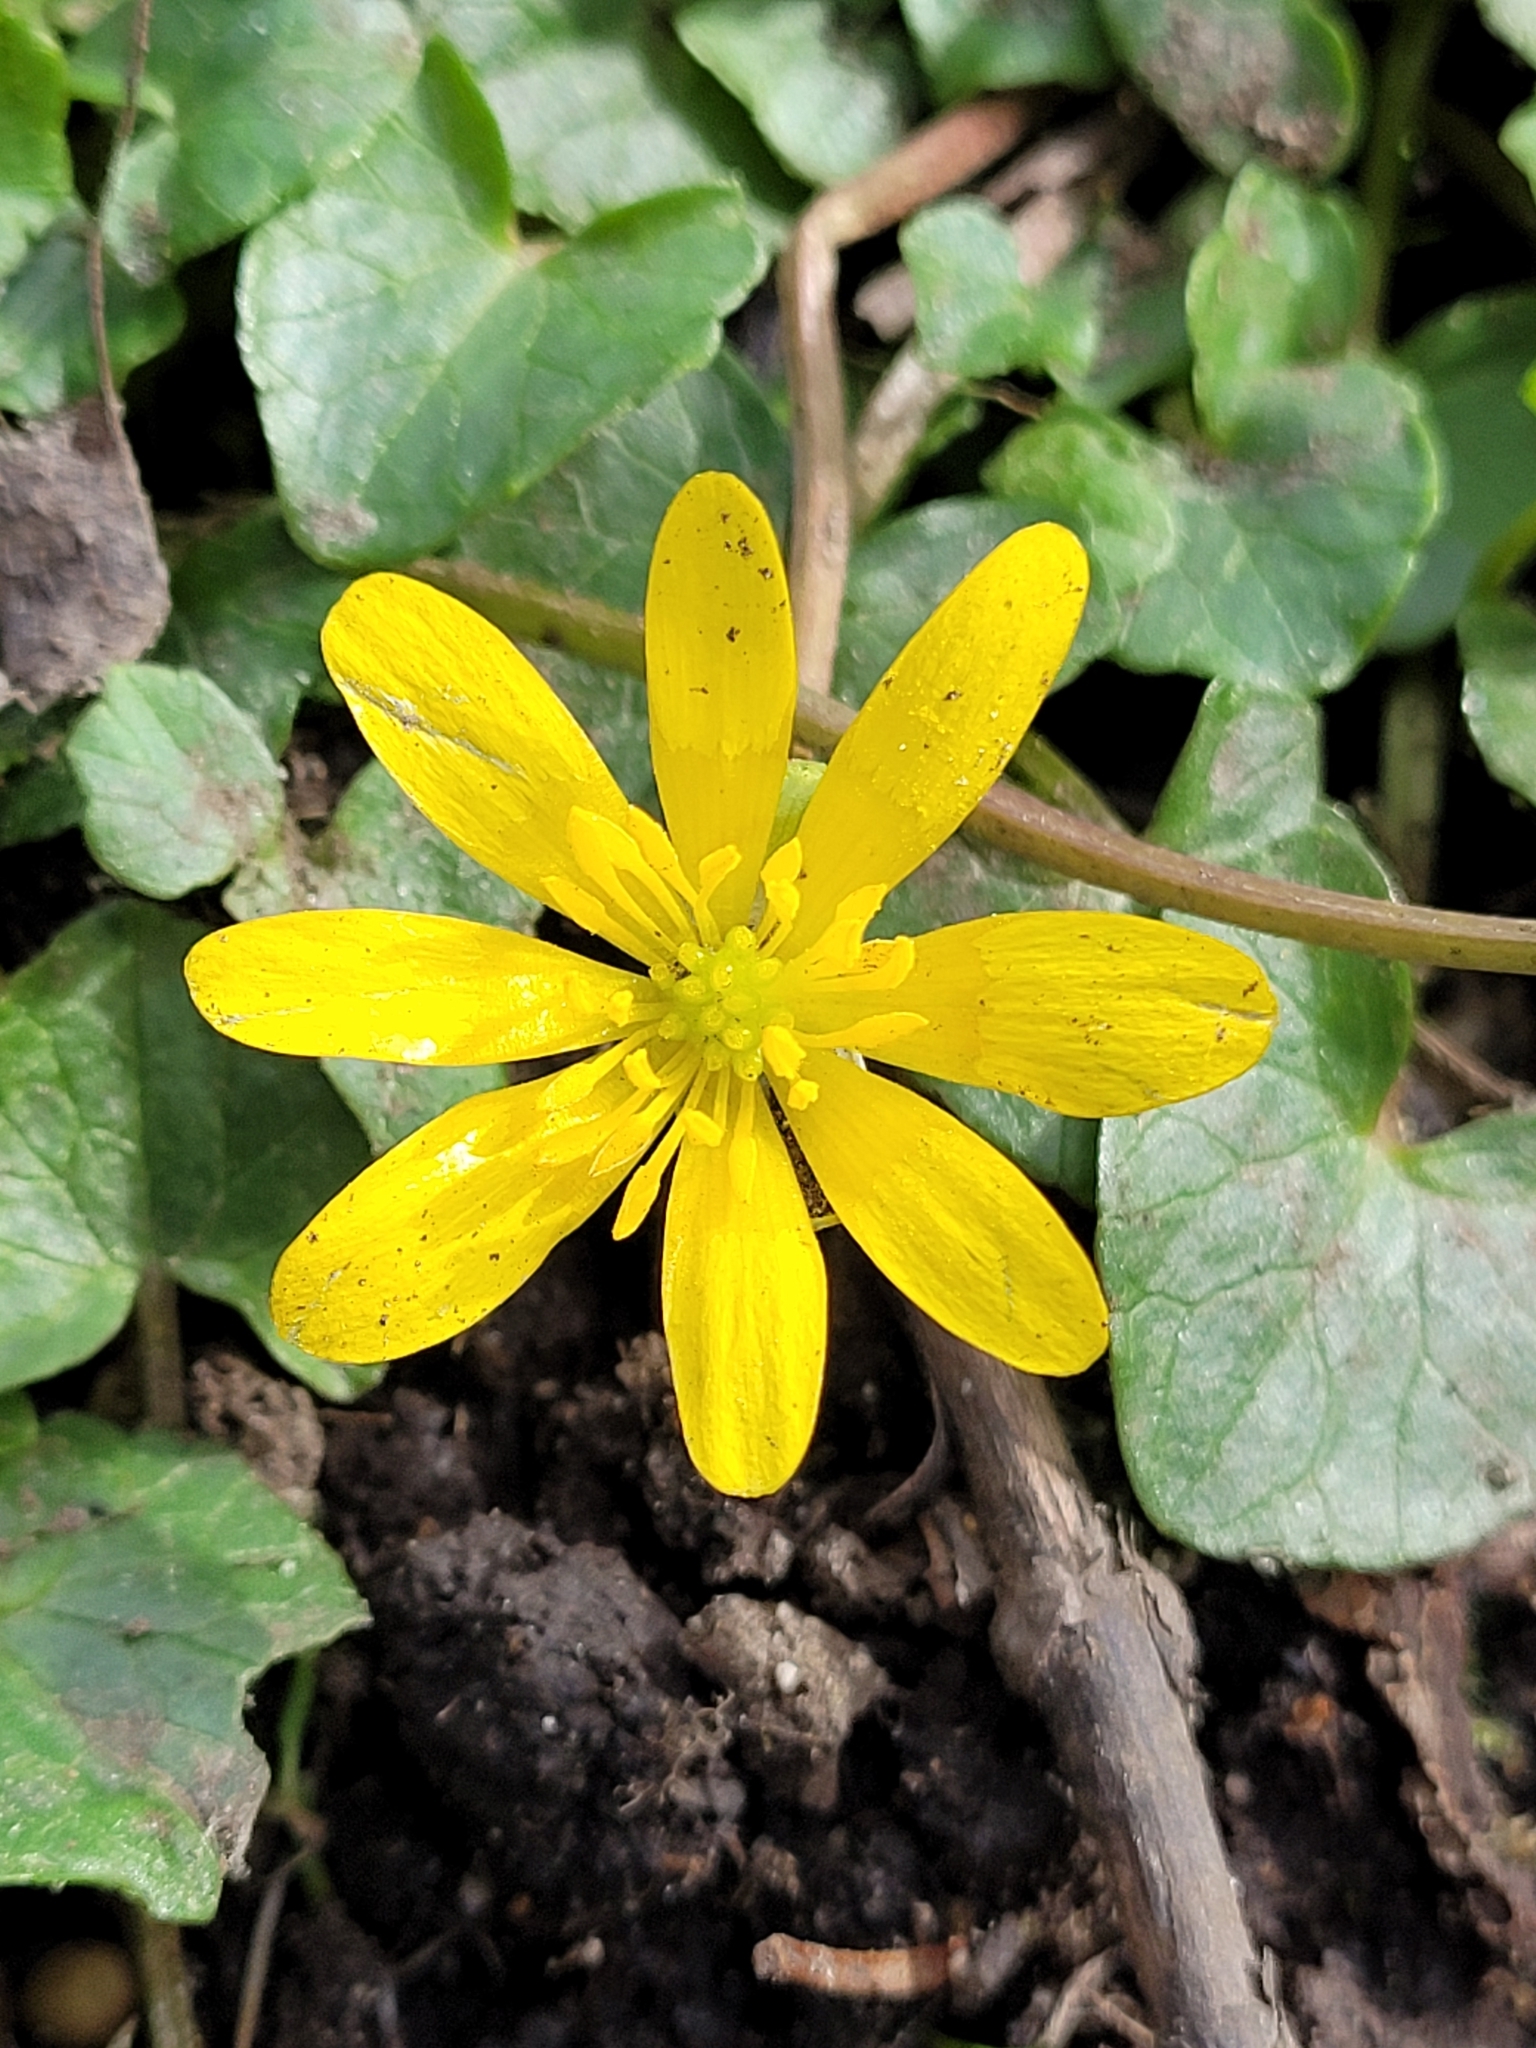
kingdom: Plantae
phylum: Tracheophyta
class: Magnoliopsida
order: Ranunculales
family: Ranunculaceae
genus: Ficaria
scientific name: Ficaria verna
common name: Lesser celandine
